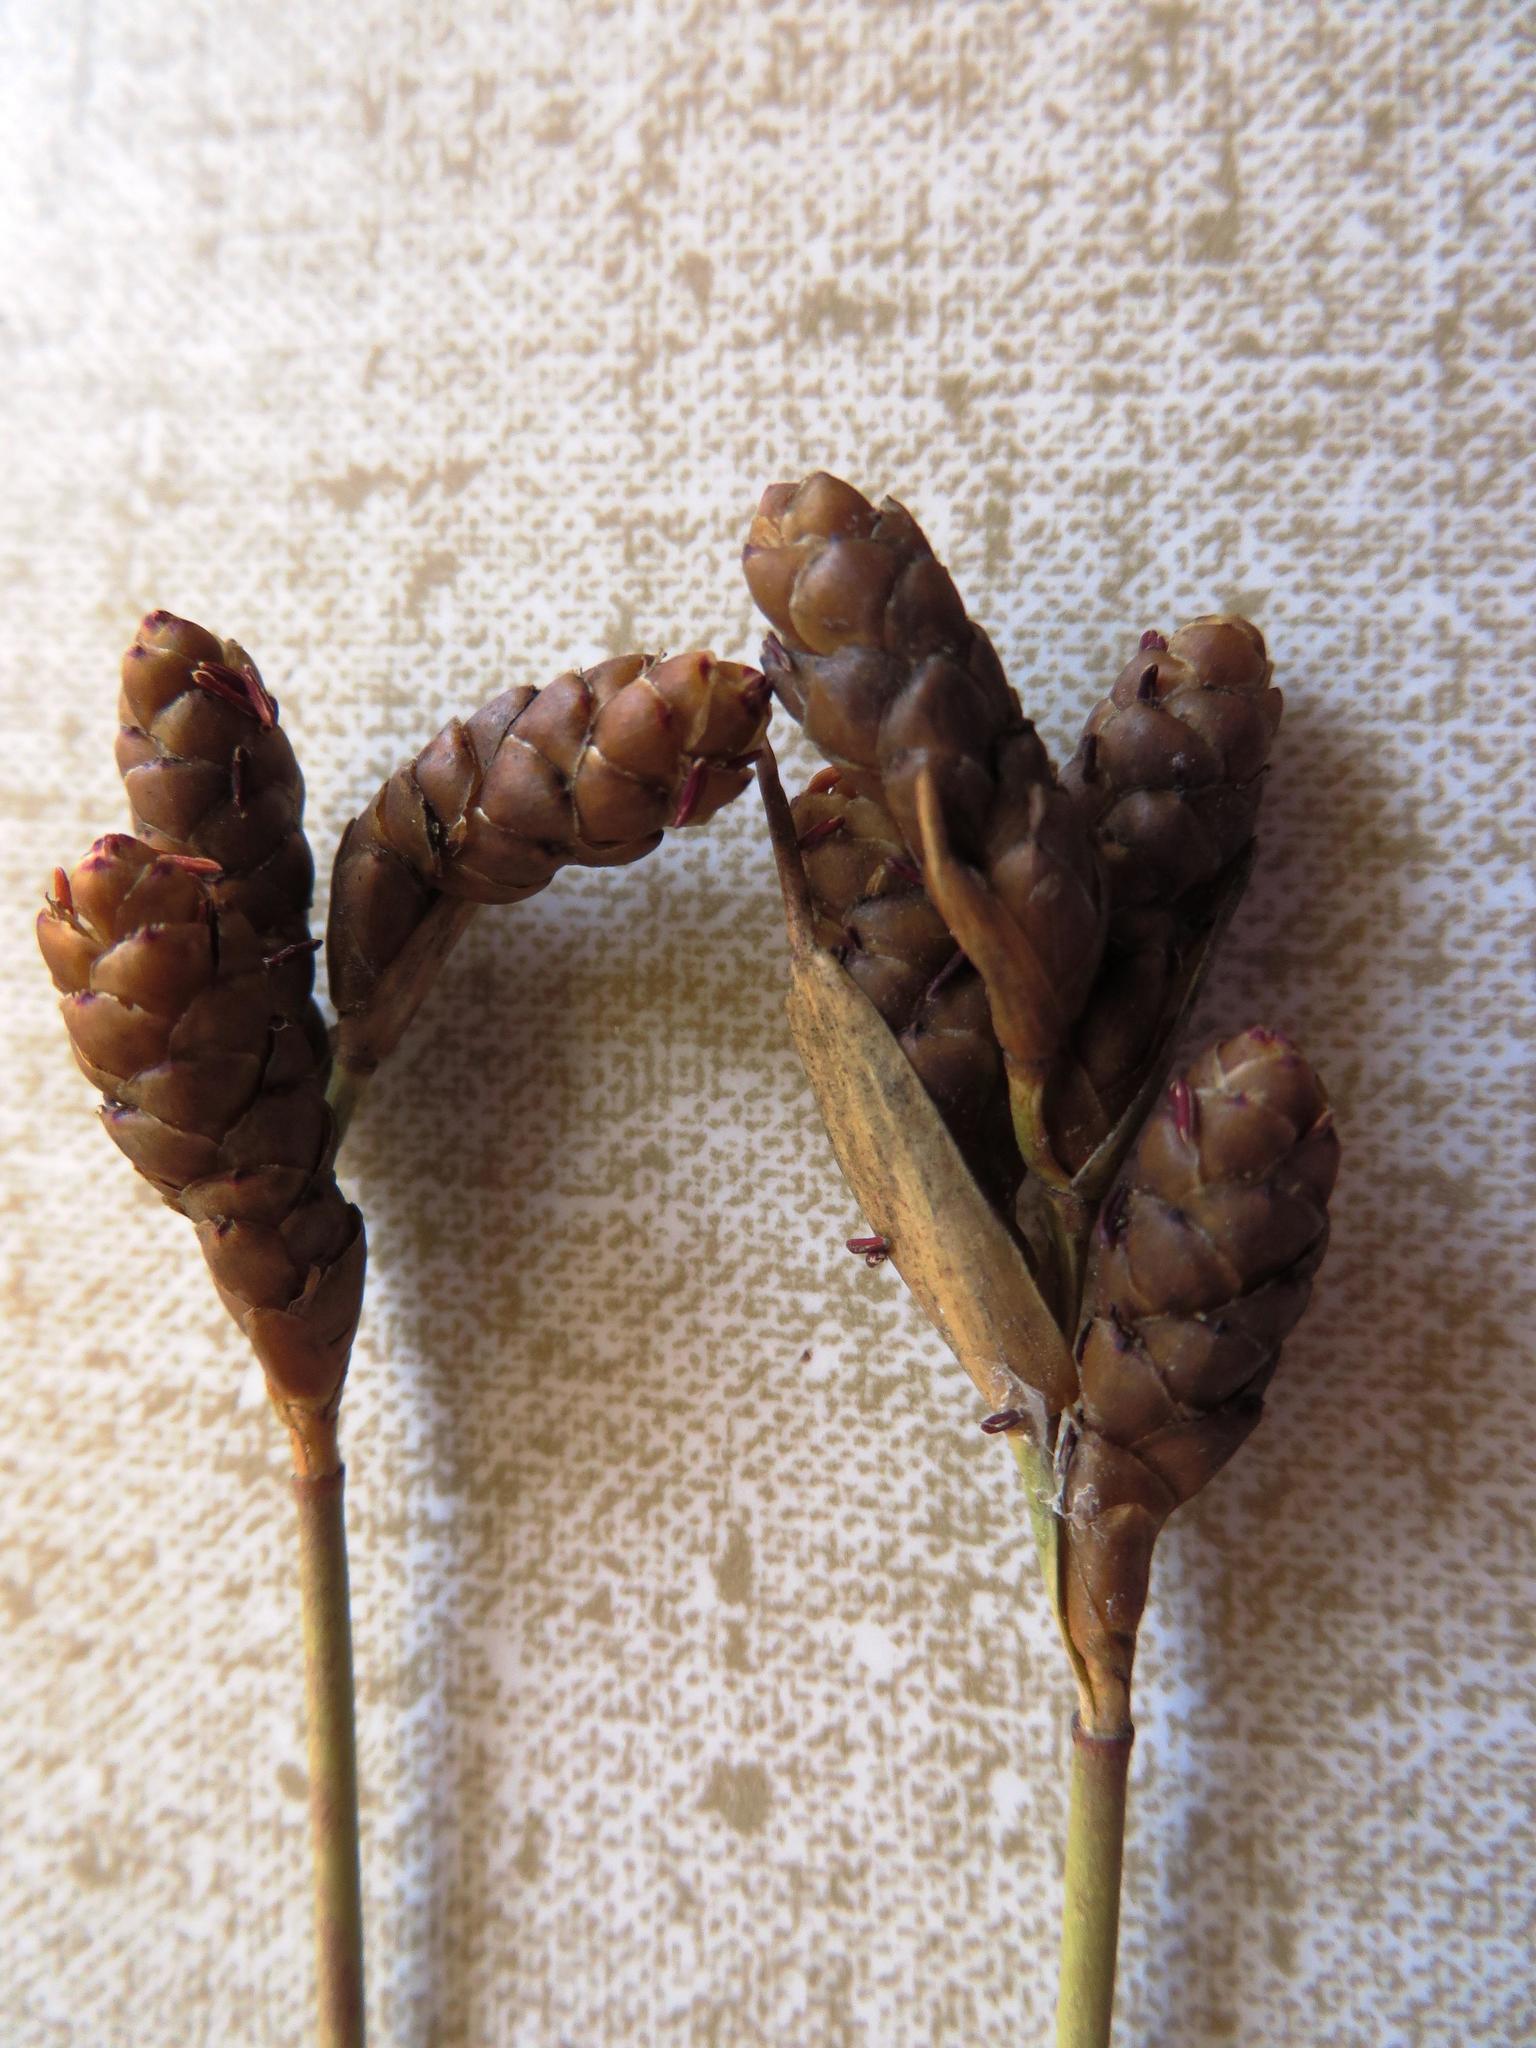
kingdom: Plantae
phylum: Tracheophyta
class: Liliopsida
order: Poales
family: Restionaceae
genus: Nevillea
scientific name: Nevillea obtusissimus
